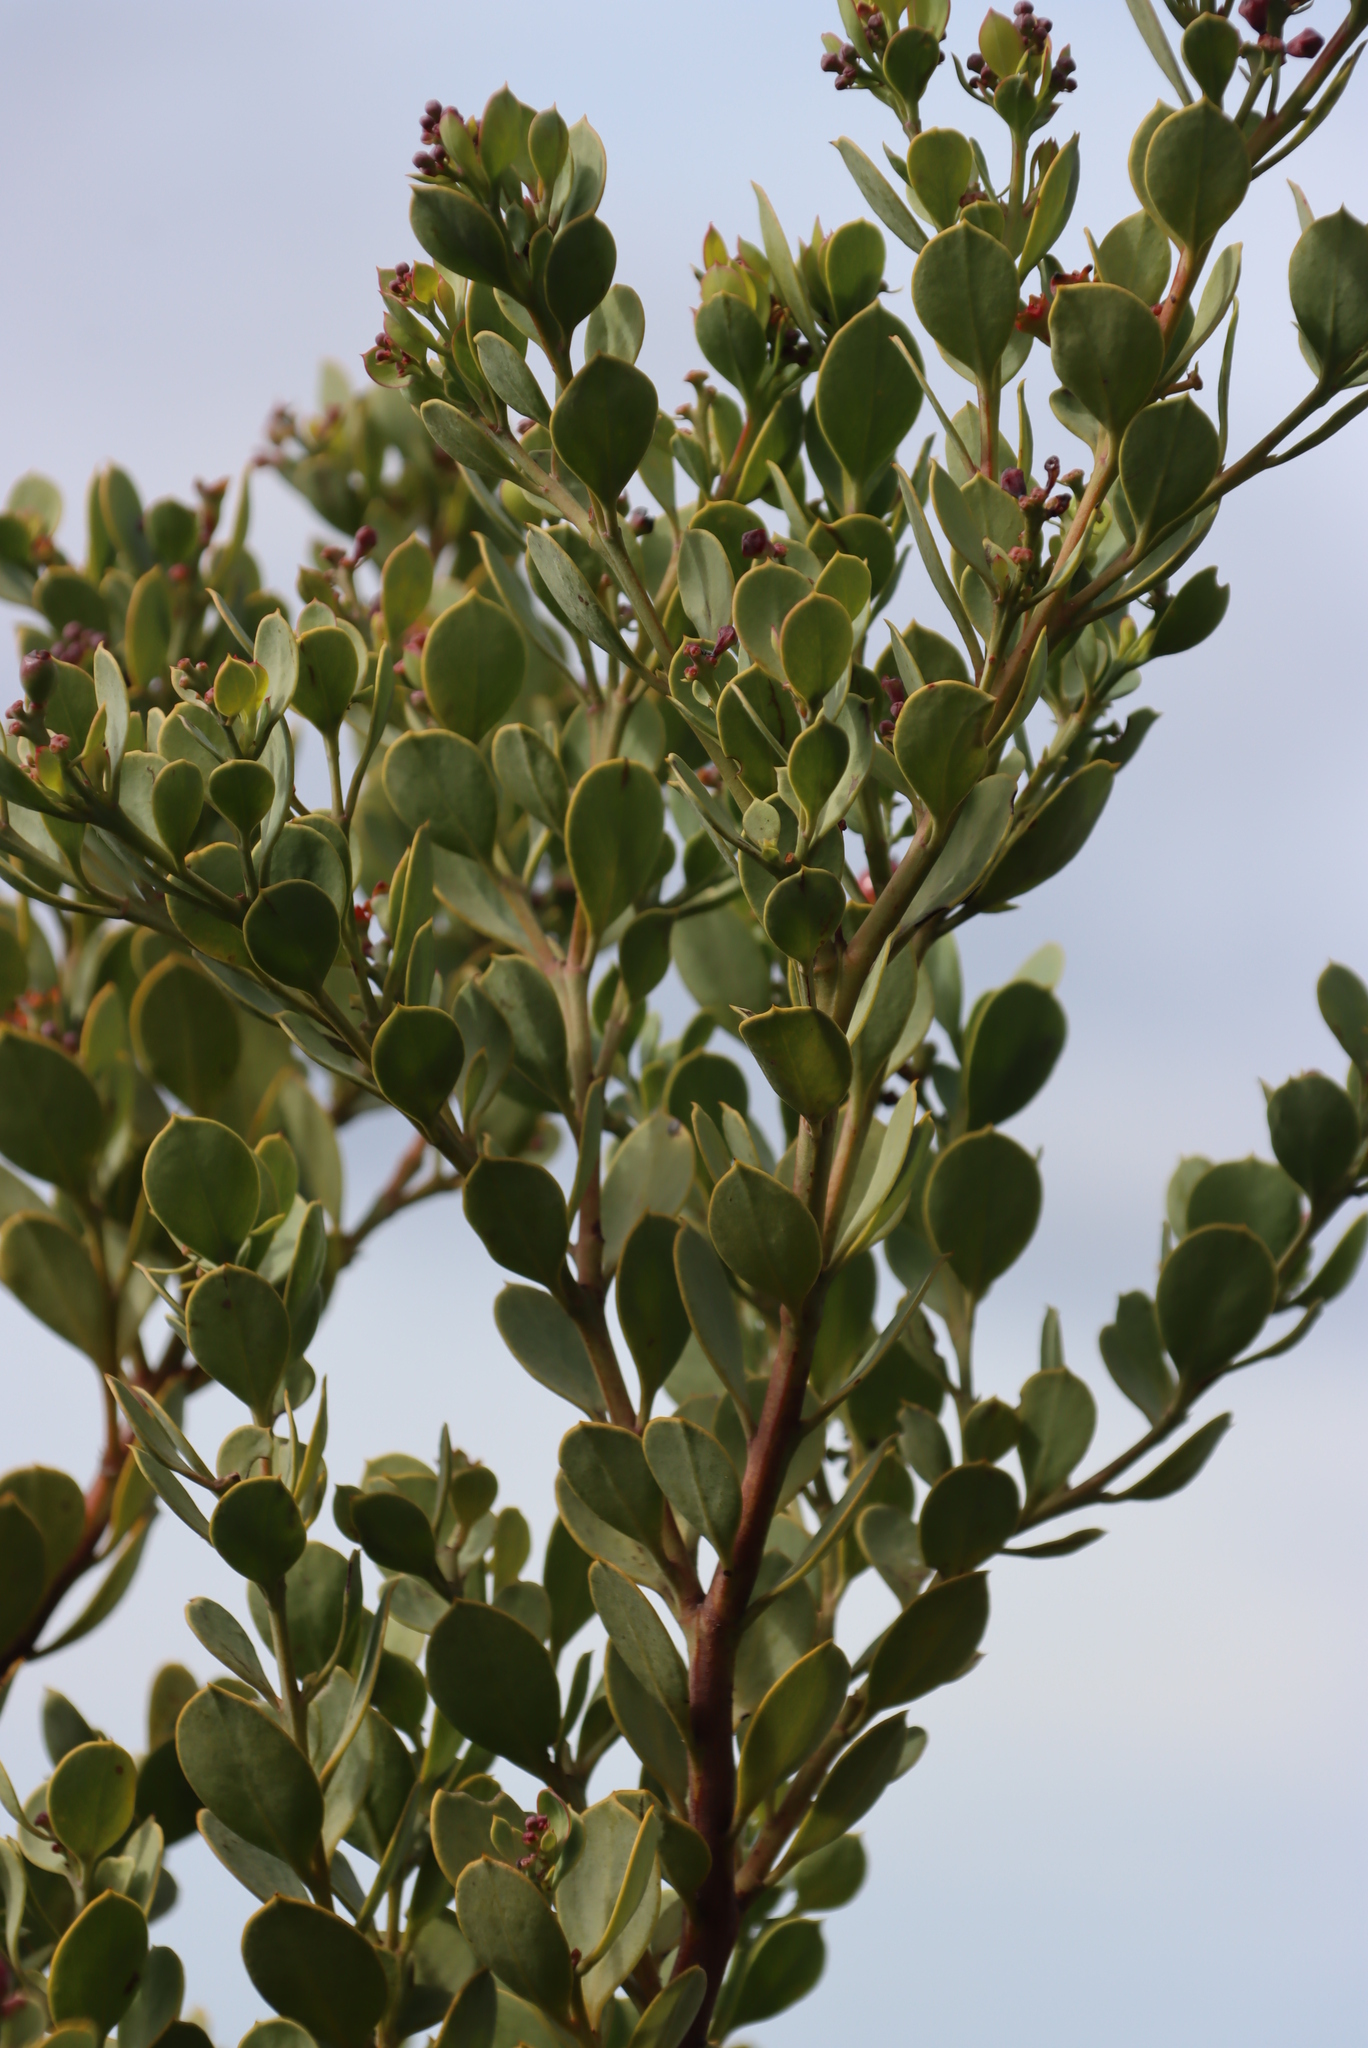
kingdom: Plantae
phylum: Tracheophyta
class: Magnoliopsida
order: Santalales
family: Santalaceae
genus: Osyris
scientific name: Osyris compressa
